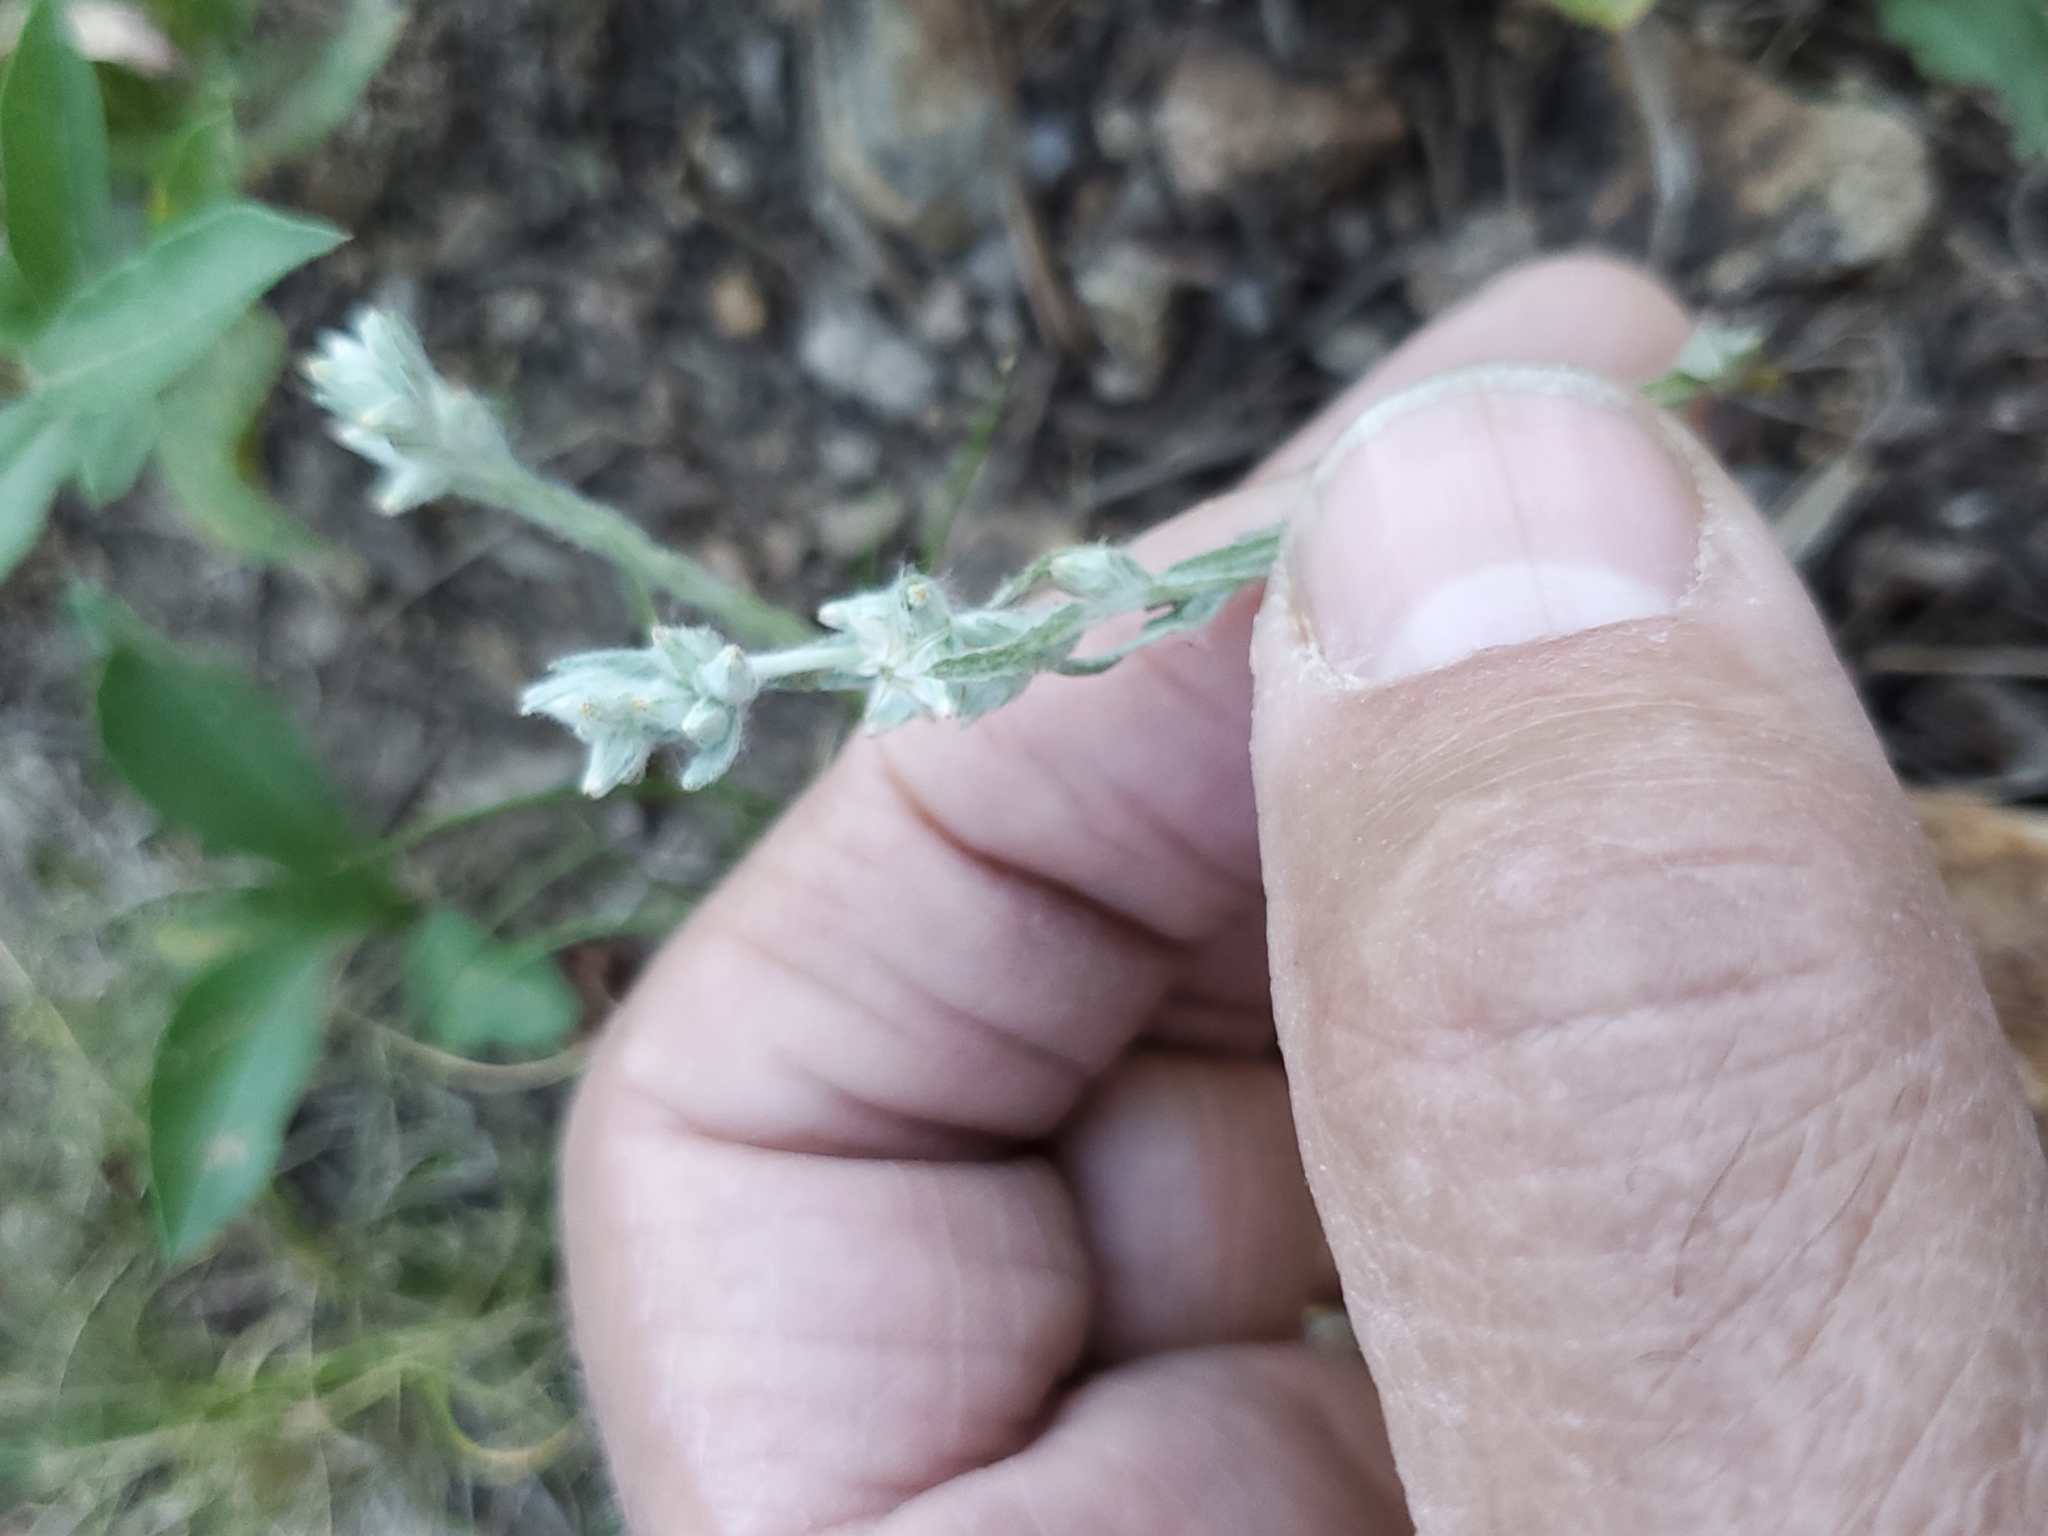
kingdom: Plantae
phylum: Tracheophyta
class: Magnoliopsida
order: Asterales
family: Asteraceae
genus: Filago
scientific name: Filago arvensis
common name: Field cudweed
